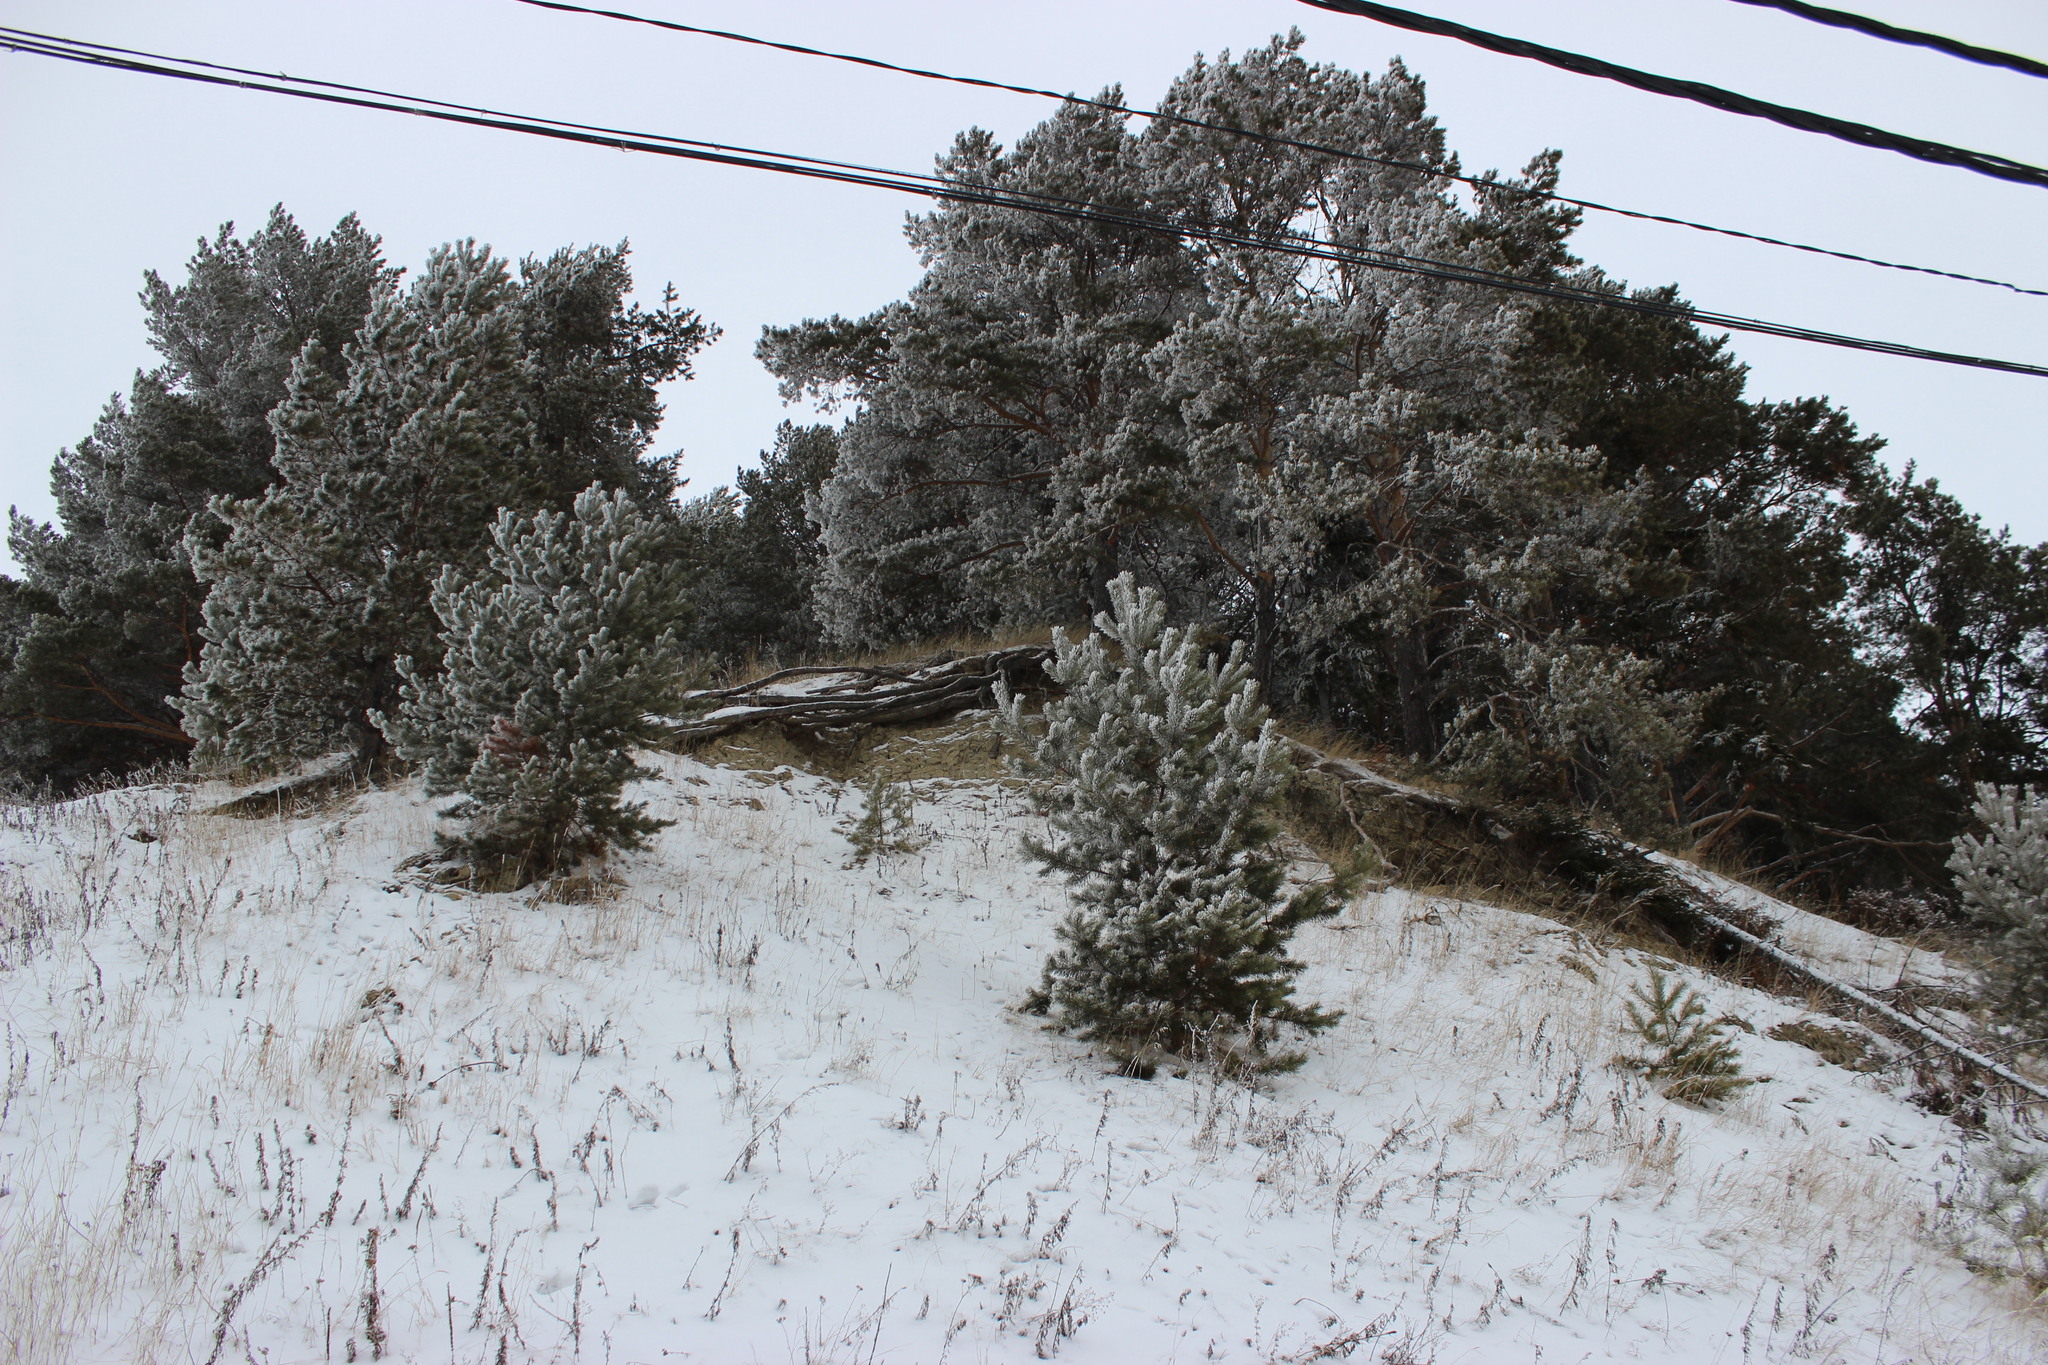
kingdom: Plantae
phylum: Tracheophyta
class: Pinopsida
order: Pinales
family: Pinaceae
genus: Pinus
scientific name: Pinus sylvestris
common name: Scots pine
